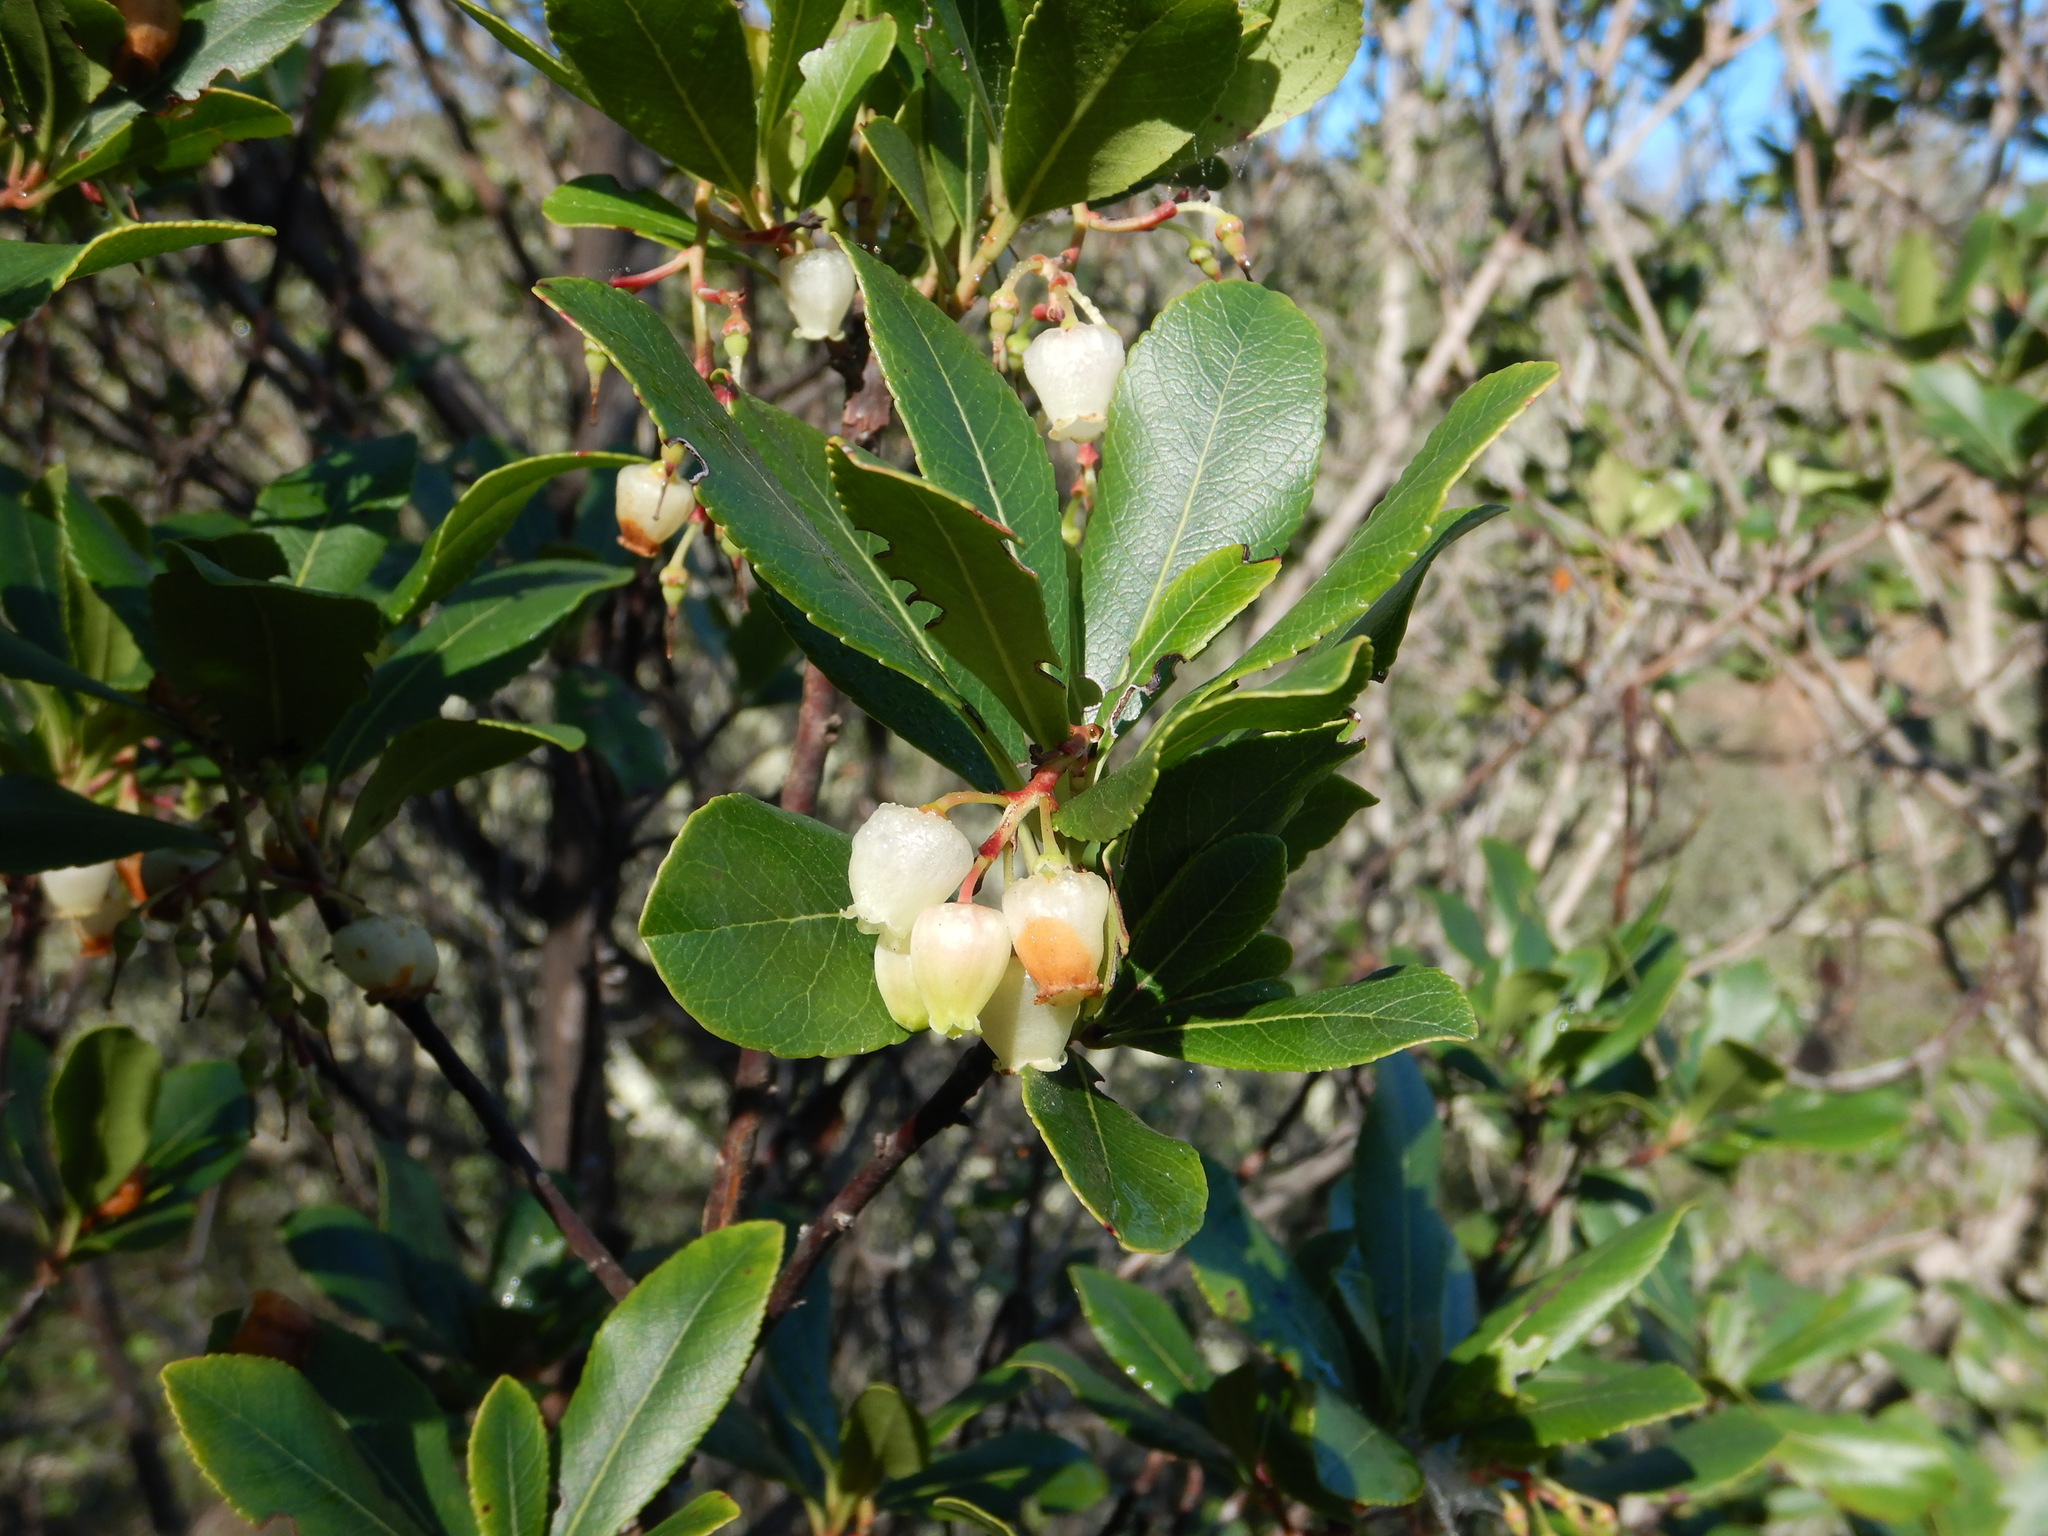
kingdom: Plantae
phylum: Tracheophyta
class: Magnoliopsida
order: Ericales
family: Ericaceae
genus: Arbutus
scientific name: Arbutus unedo
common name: Strawberry-tree
